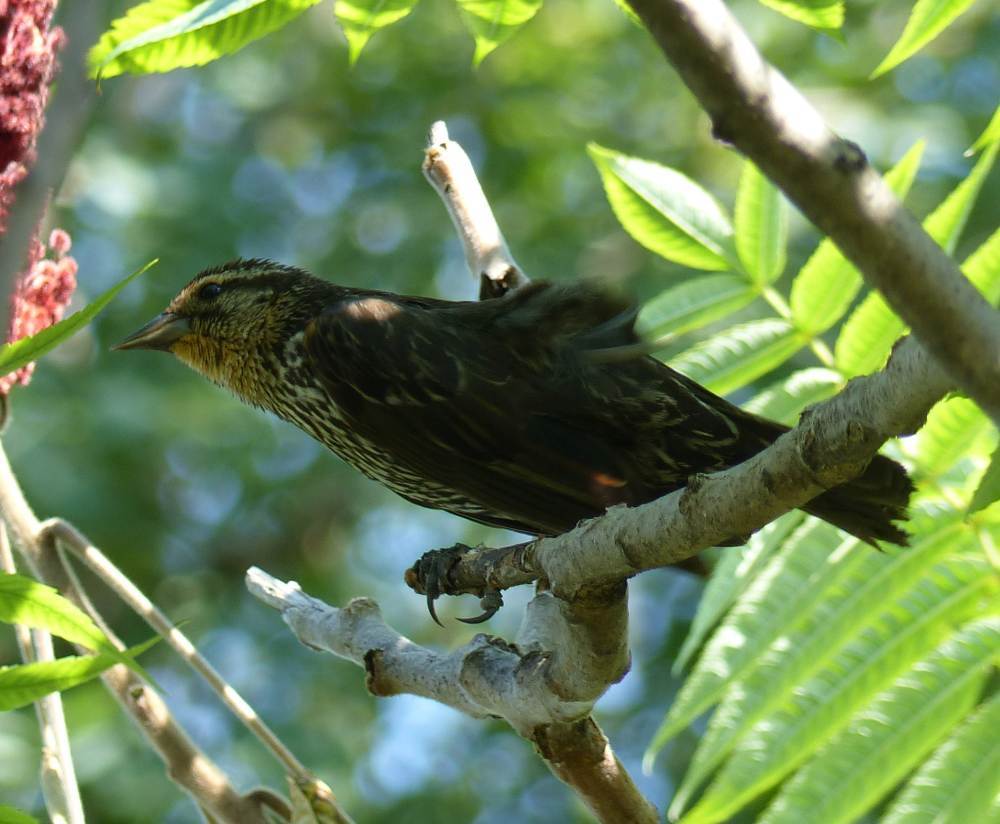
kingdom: Animalia
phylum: Chordata
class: Aves
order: Passeriformes
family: Icteridae
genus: Agelaius
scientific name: Agelaius phoeniceus
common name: Red-winged blackbird
